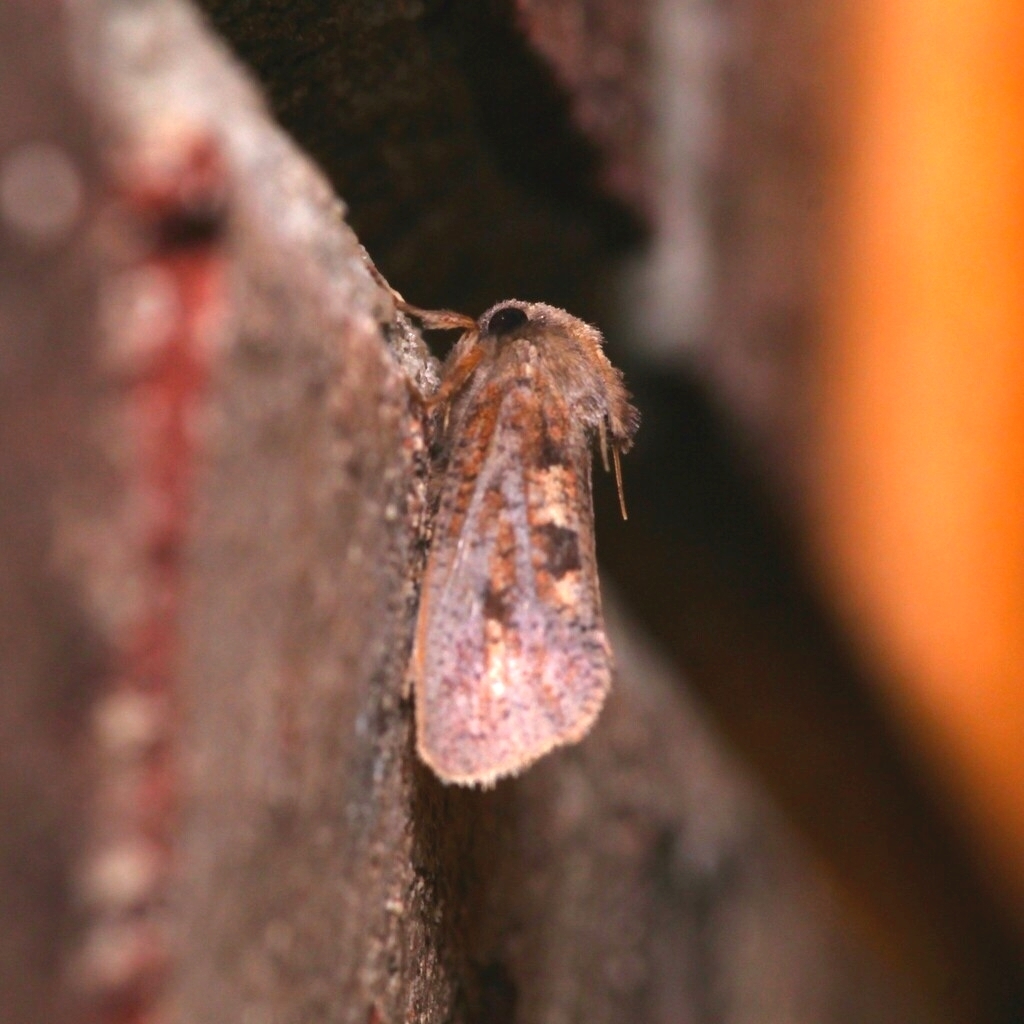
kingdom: Animalia
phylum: Arthropoda
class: Insecta
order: Lepidoptera
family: Tineidae
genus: Acrolophus
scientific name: Acrolophus plumifrontella
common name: Eastern grass tubeworm moth
